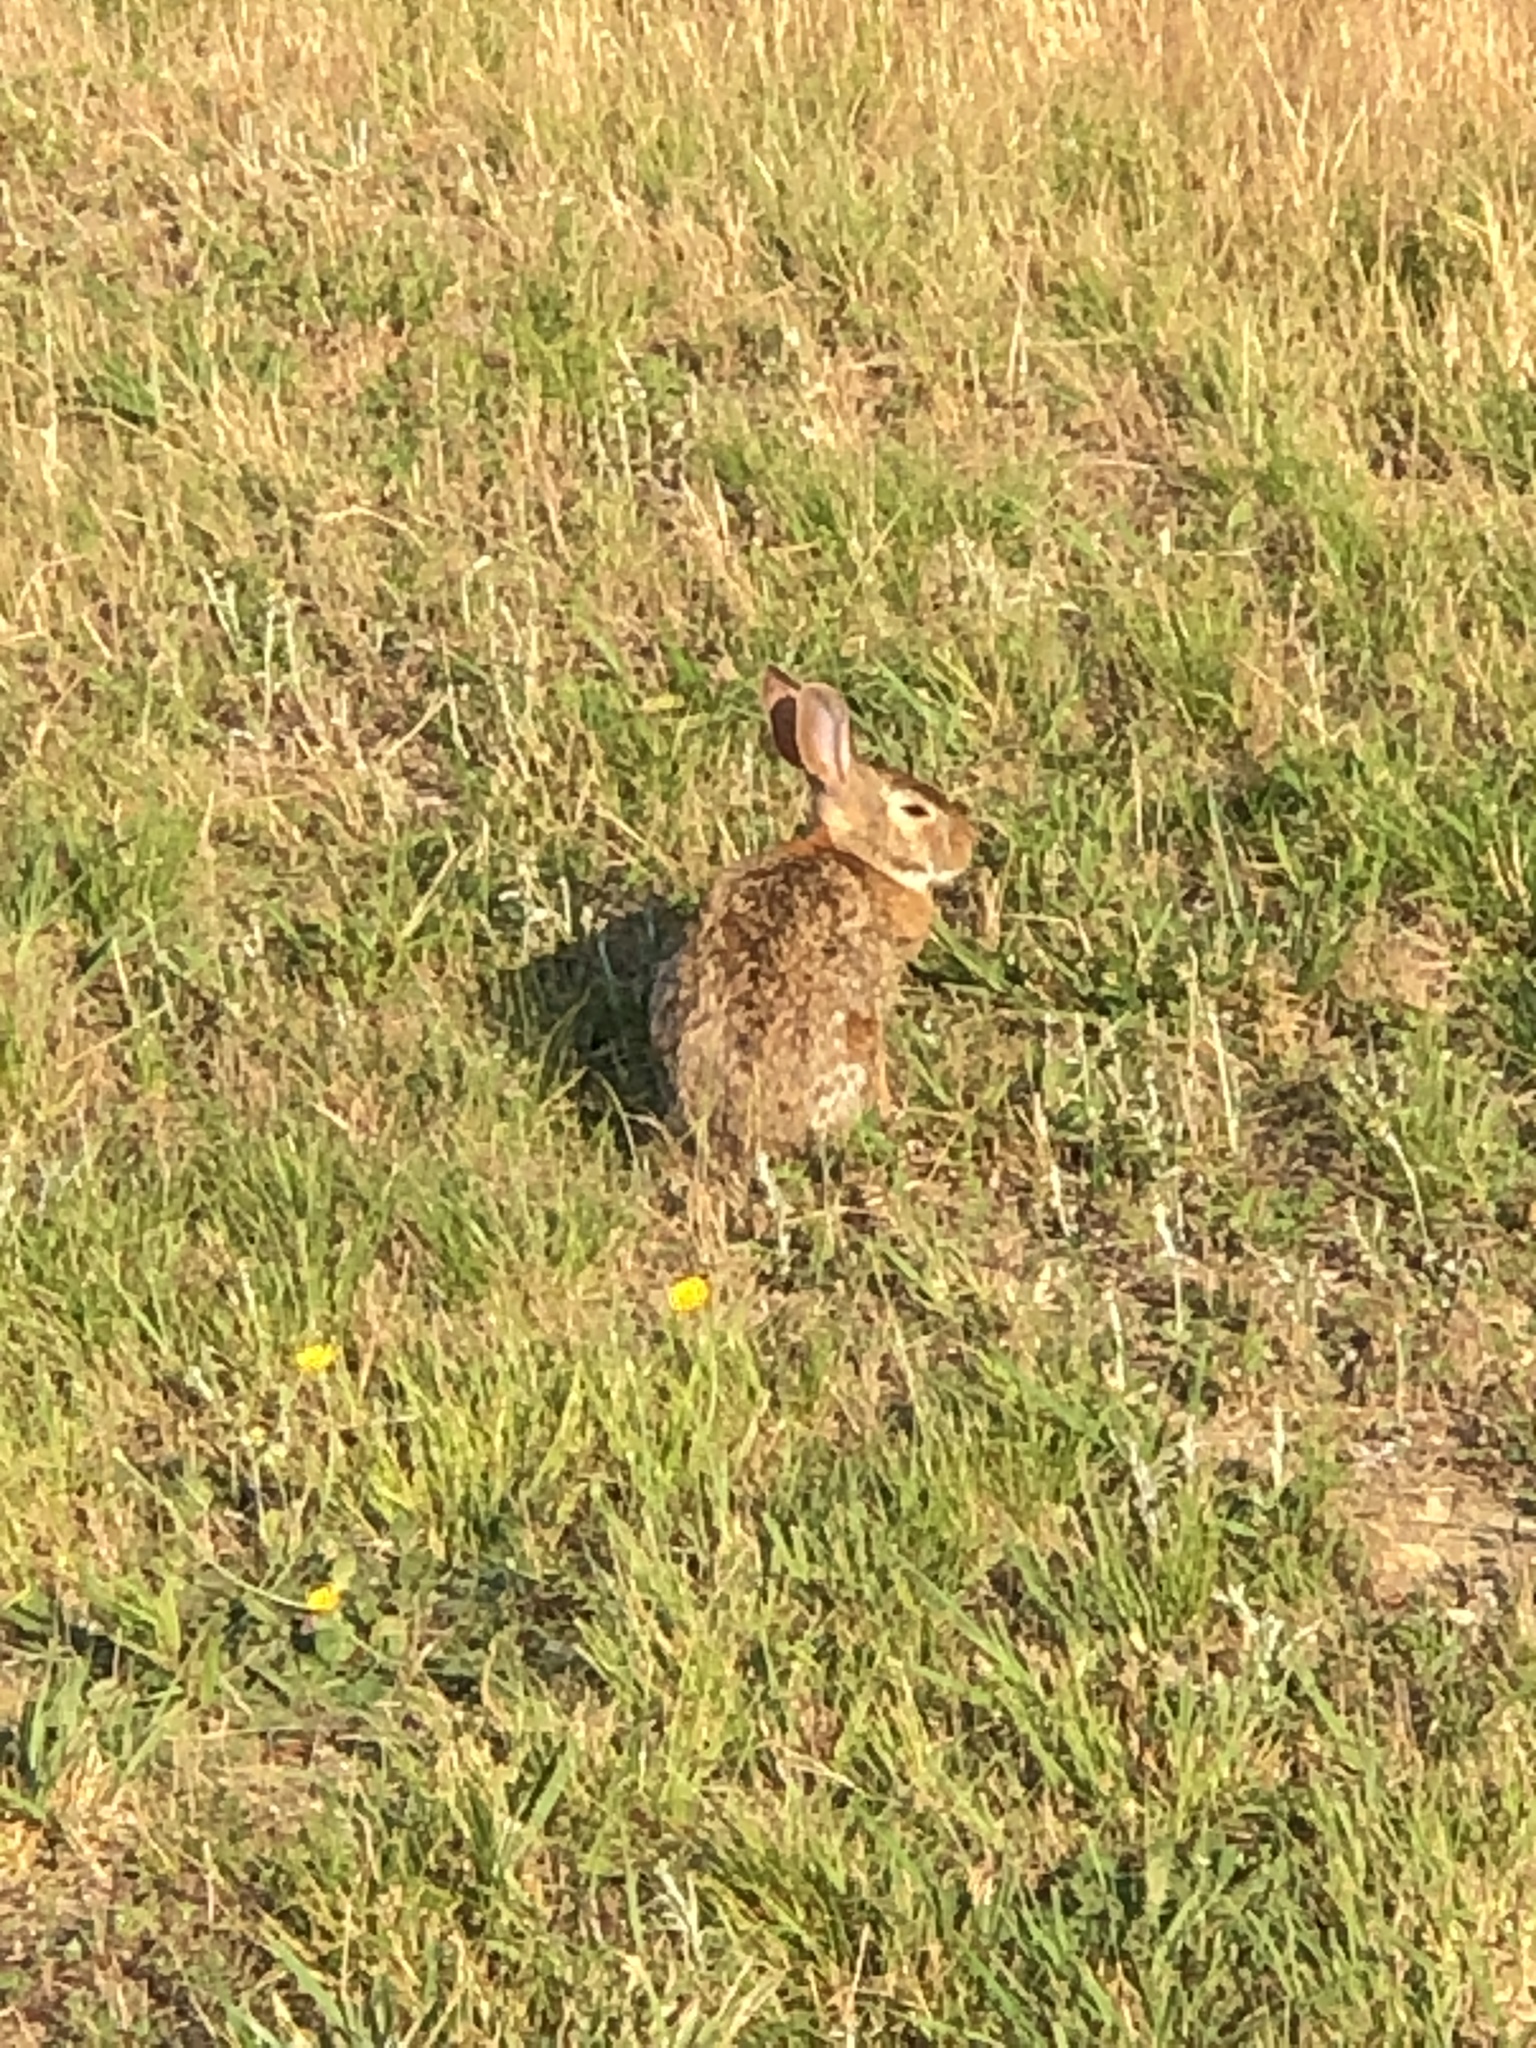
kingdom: Animalia
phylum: Chordata
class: Mammalia
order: Lagomorpha
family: Leporidae
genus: Sylvilagus
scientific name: Sylvilagus floridanus
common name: Eastern cottontail
